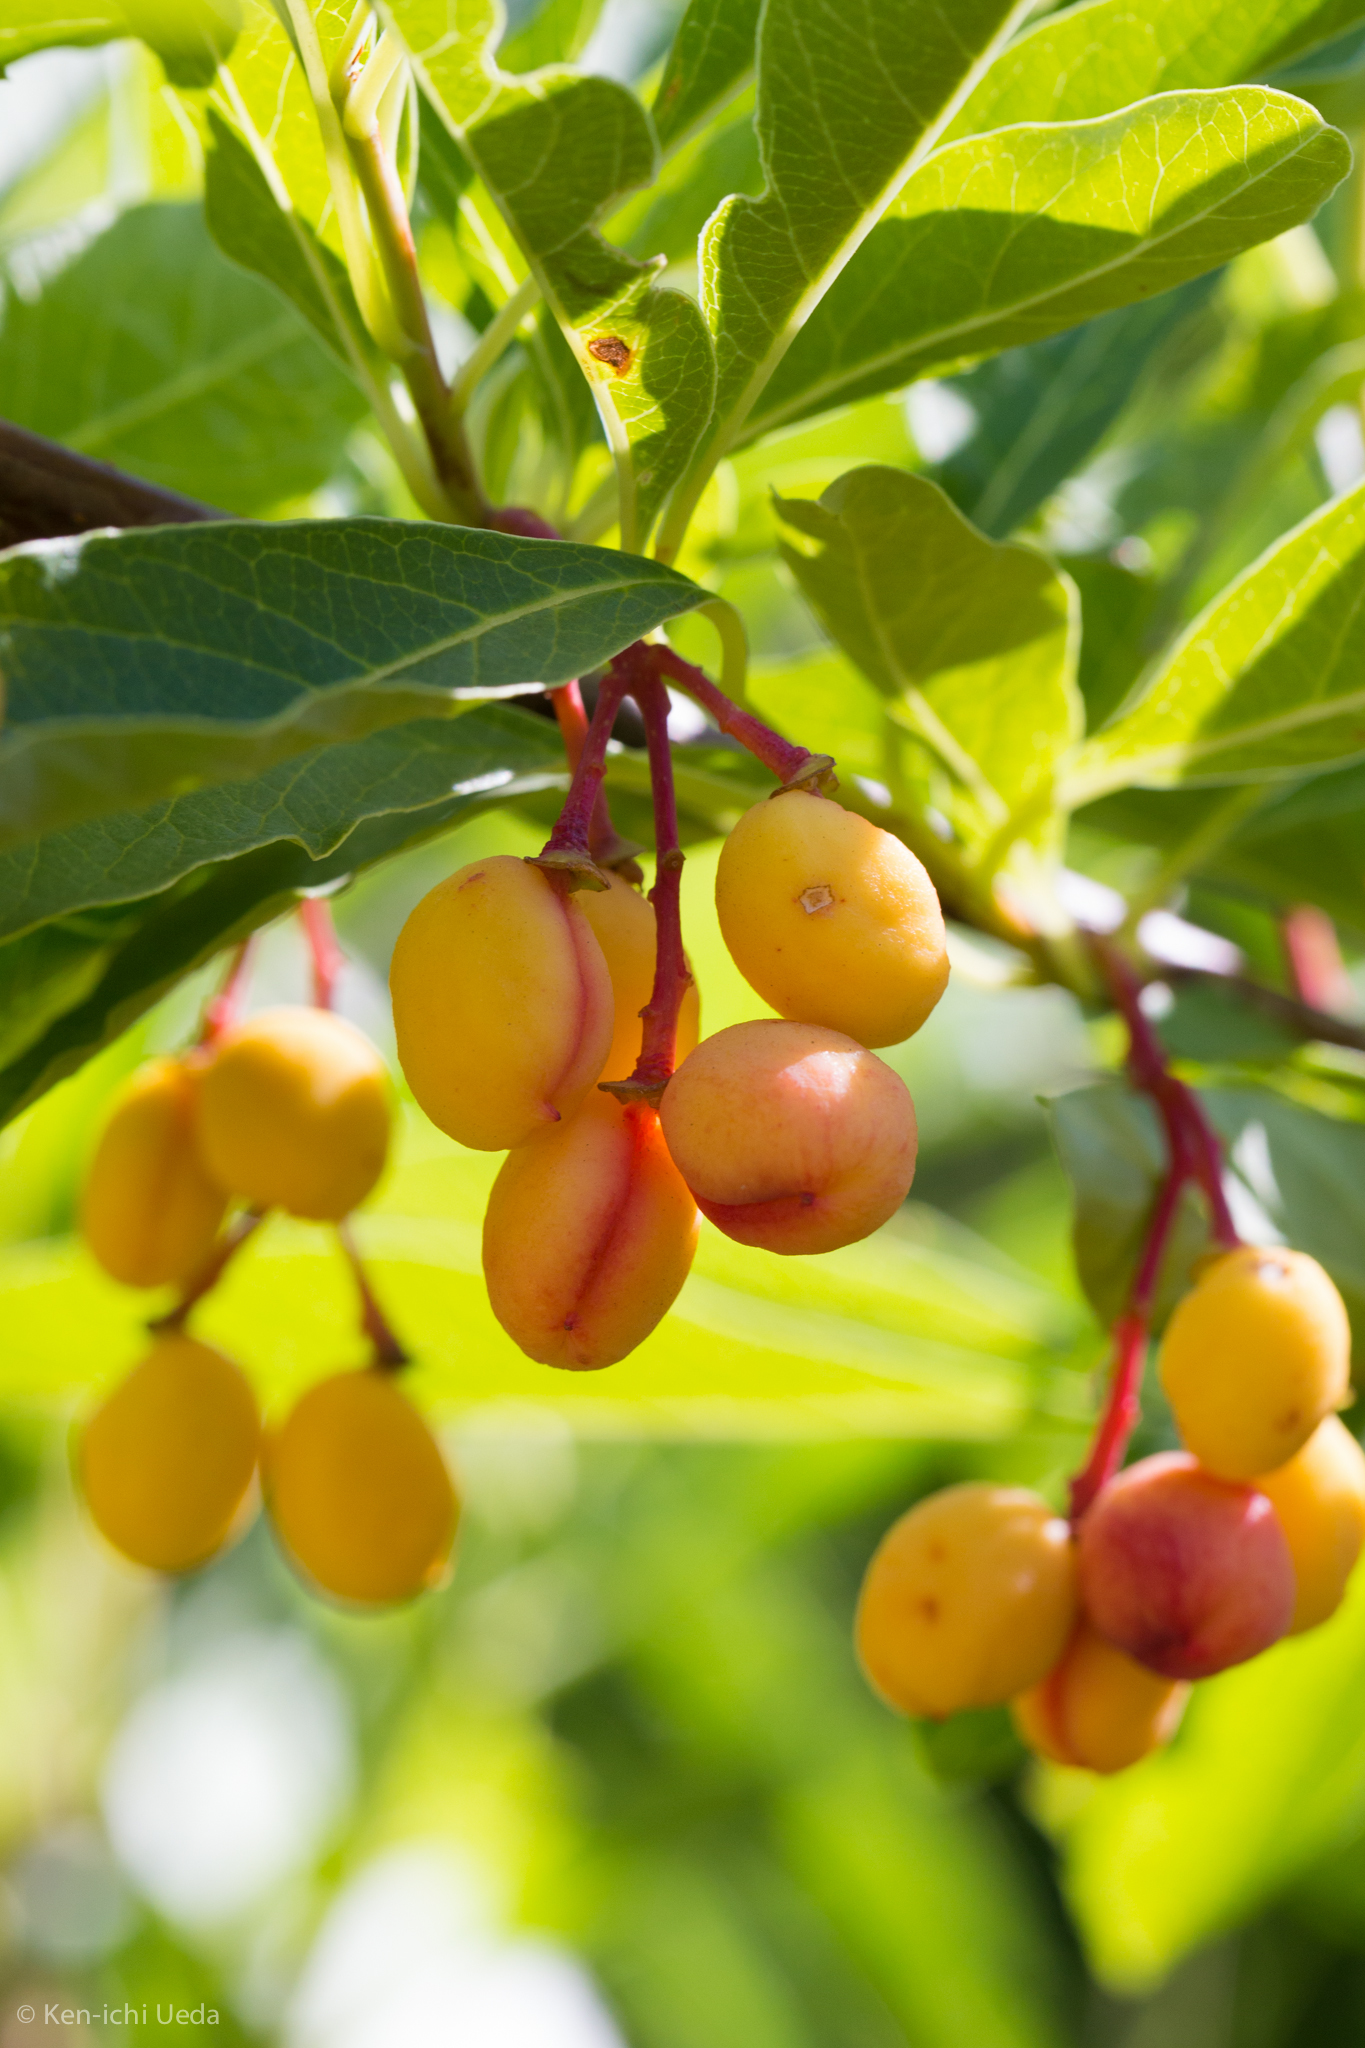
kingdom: Plantae
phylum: Tracheophyta
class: Magnoliopsida
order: Rosales
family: Rosaceae
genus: Oemleria
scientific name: Oemleria cerasiformis
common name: Osoberry
